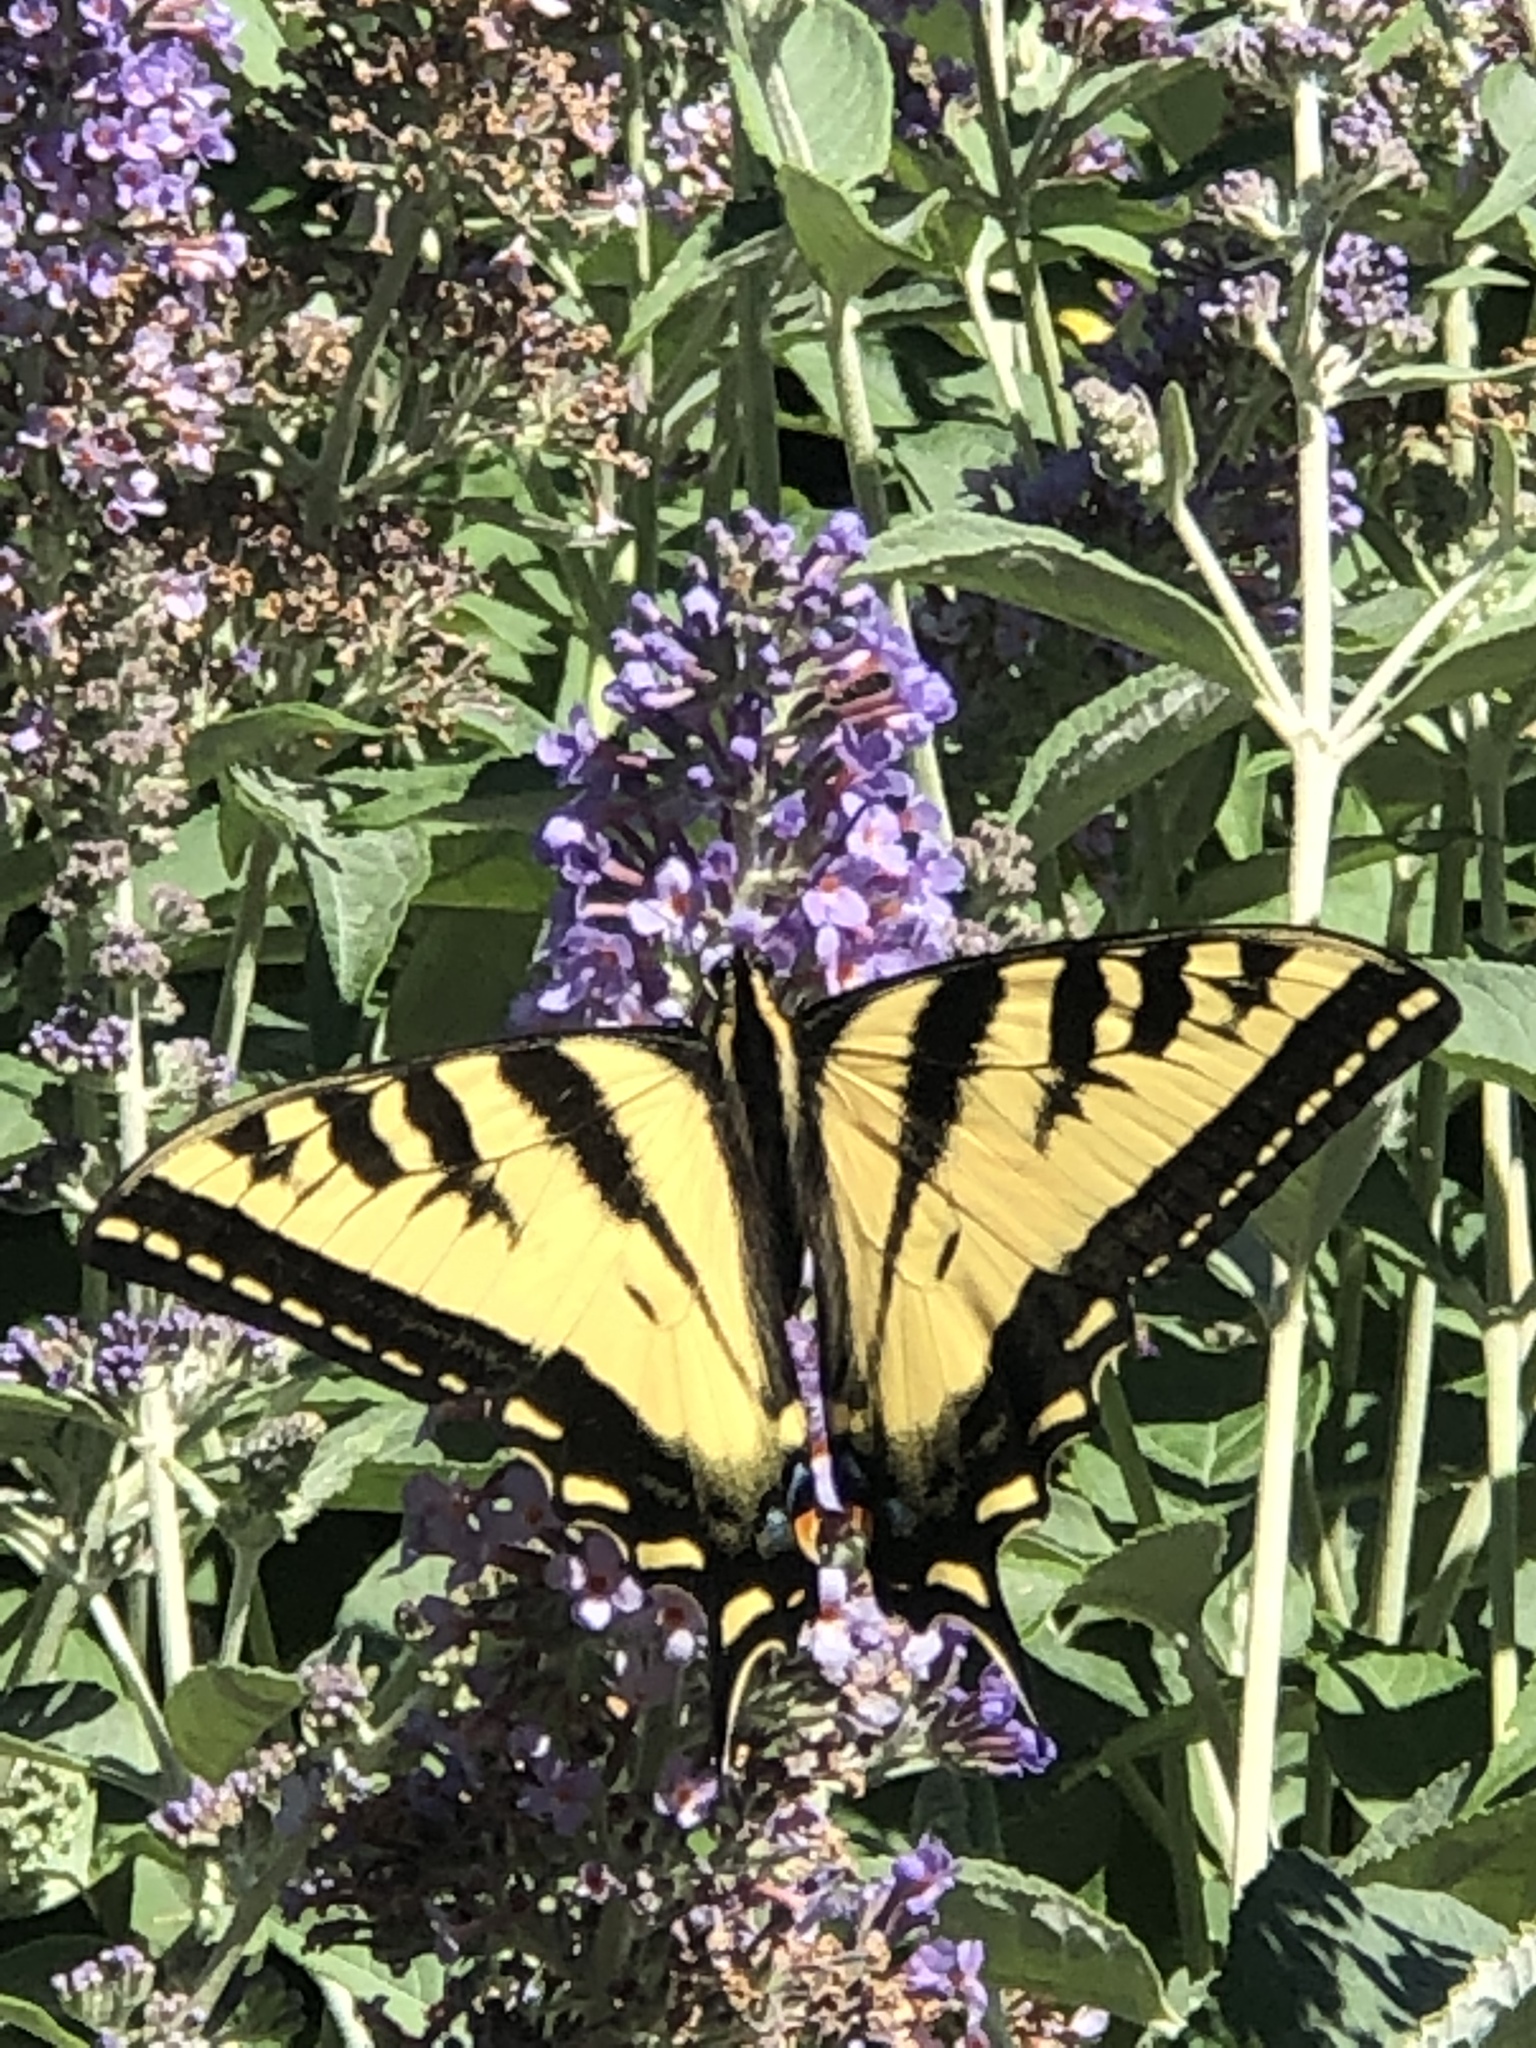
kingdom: Animalia
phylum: Arthropoda
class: Insecta
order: Lepidoptera
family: Papilionidae
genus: Papilio
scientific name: Papilio rutulus
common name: Western tiger swallowtail
